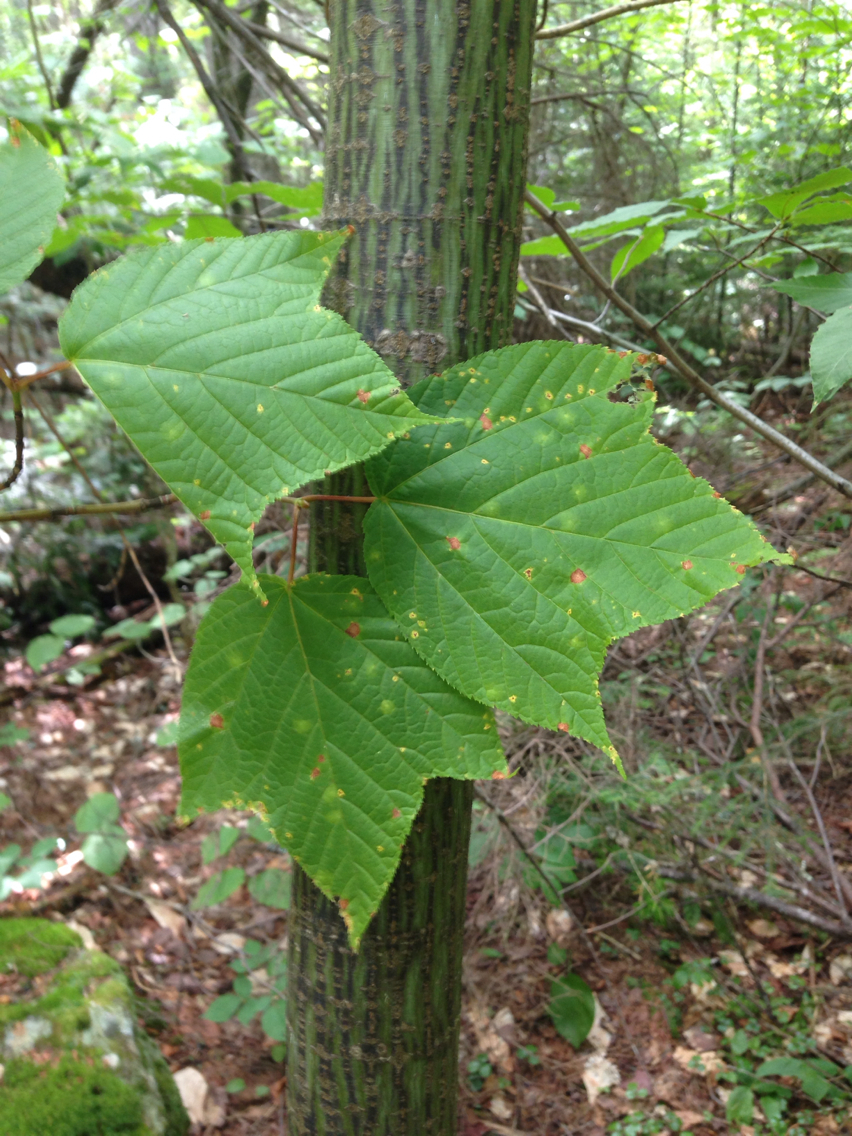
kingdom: Plantae
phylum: Tracheophyta
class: Magnoliopsida
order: Sapindales
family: Sapindaceae
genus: Acer
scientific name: Acer pensylvanicum
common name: Moosewood
